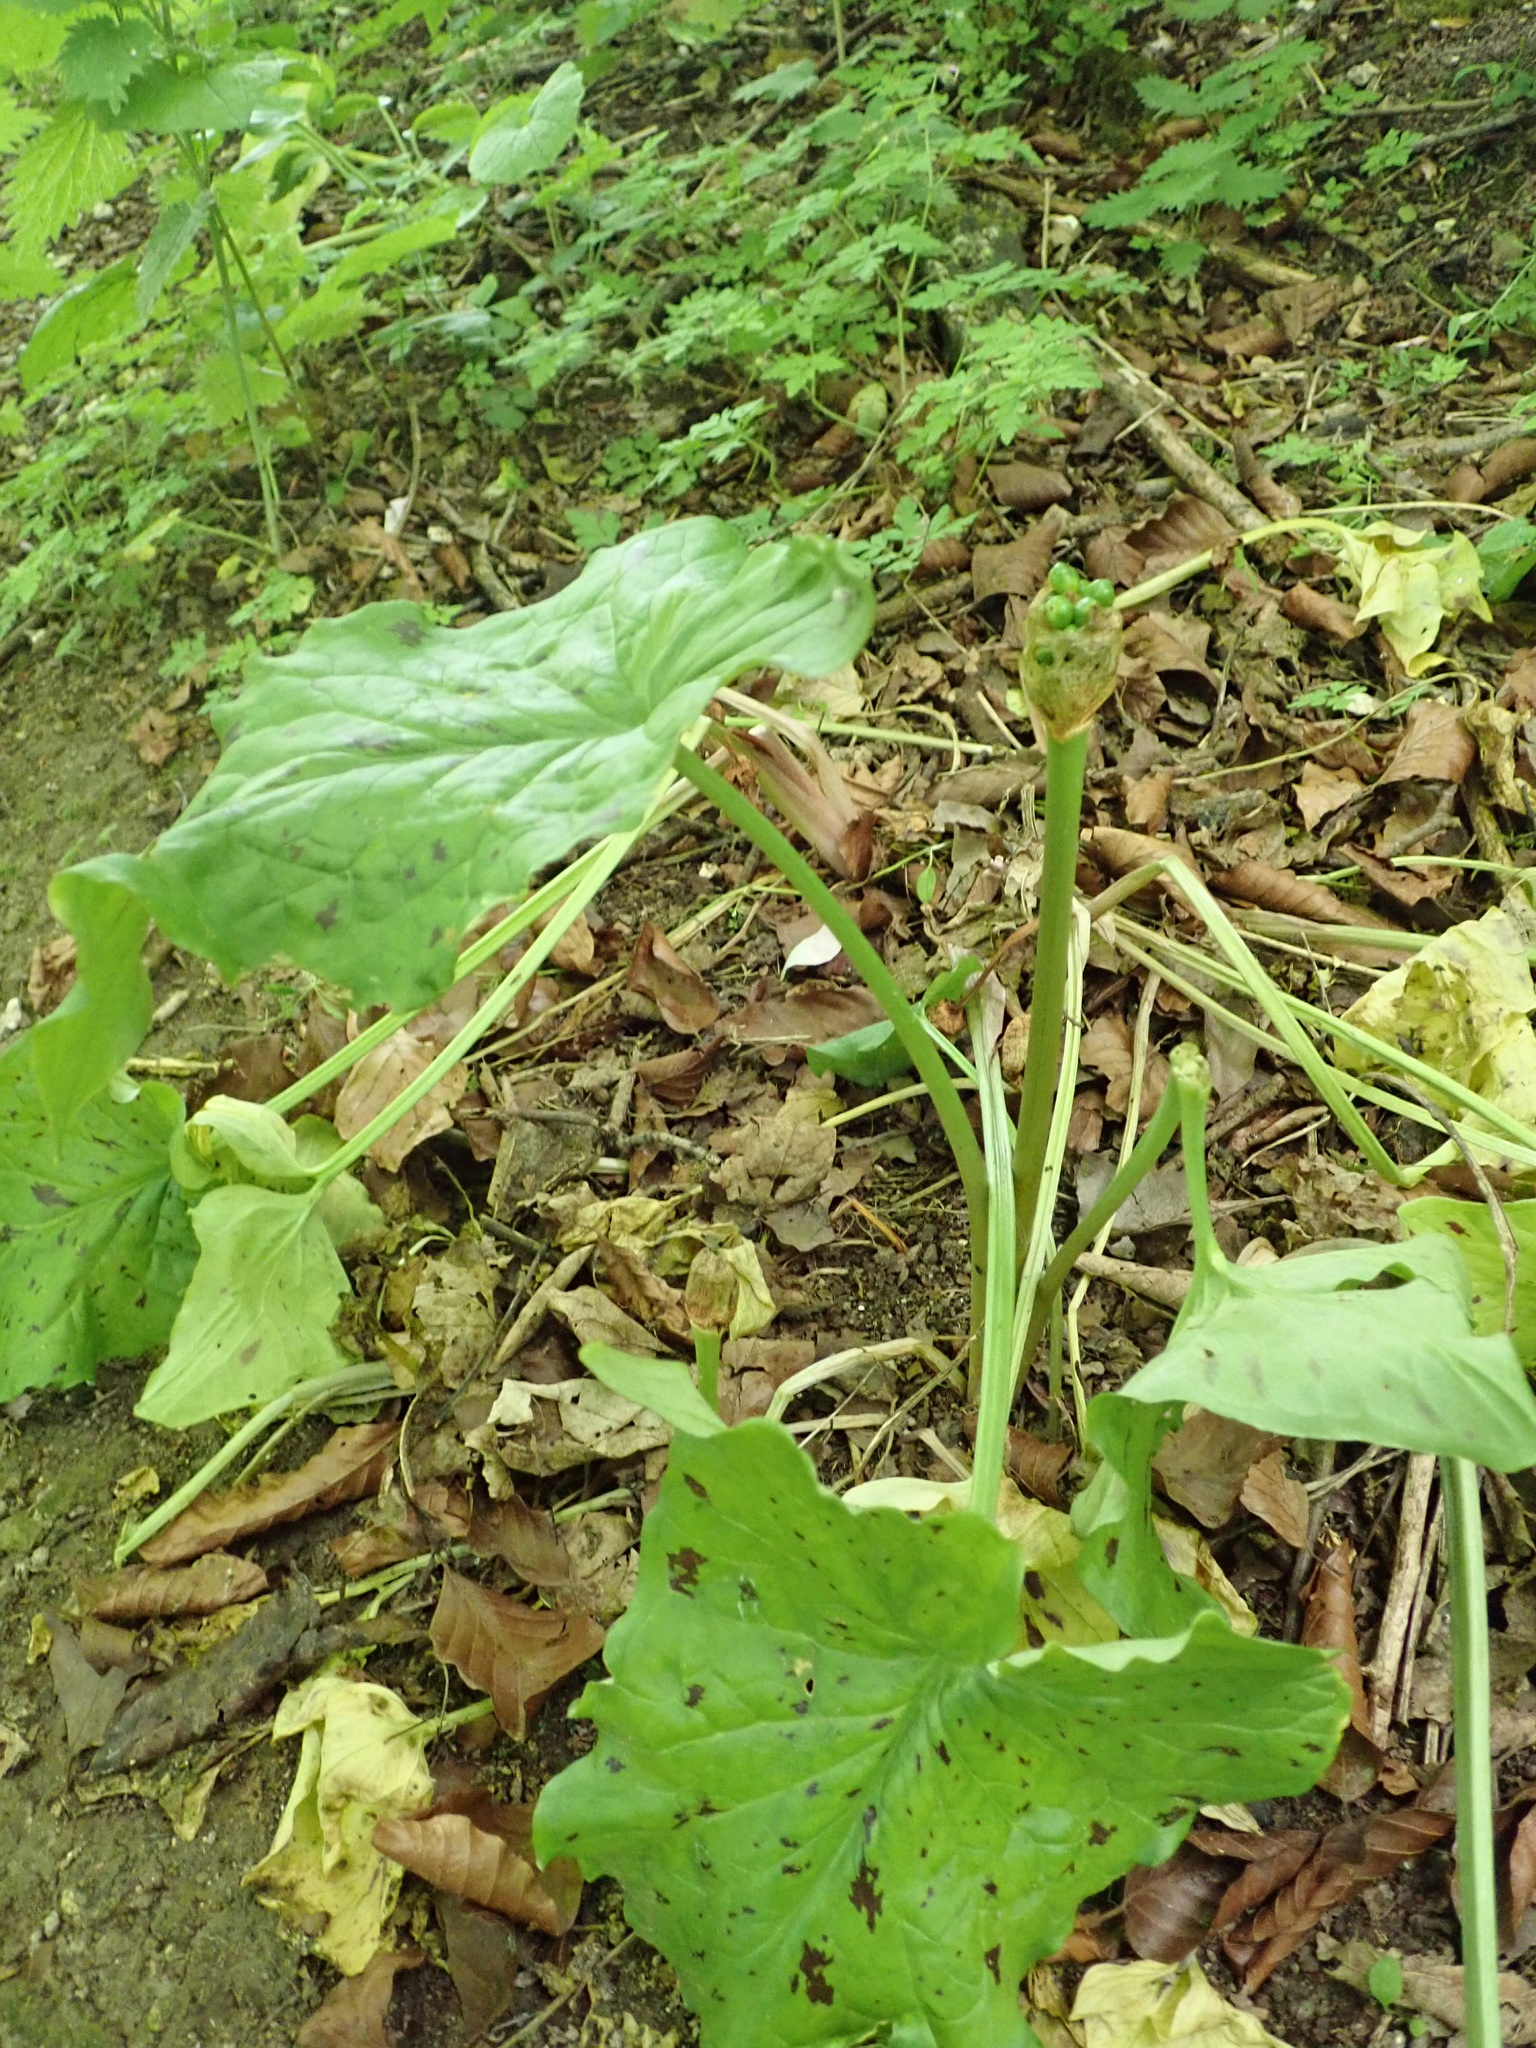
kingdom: Plantae
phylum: Tracheophyta
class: Liliopsida
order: Alismatales
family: Araceae
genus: Arum
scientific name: Arum maculatum
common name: Lords-and-ladies
